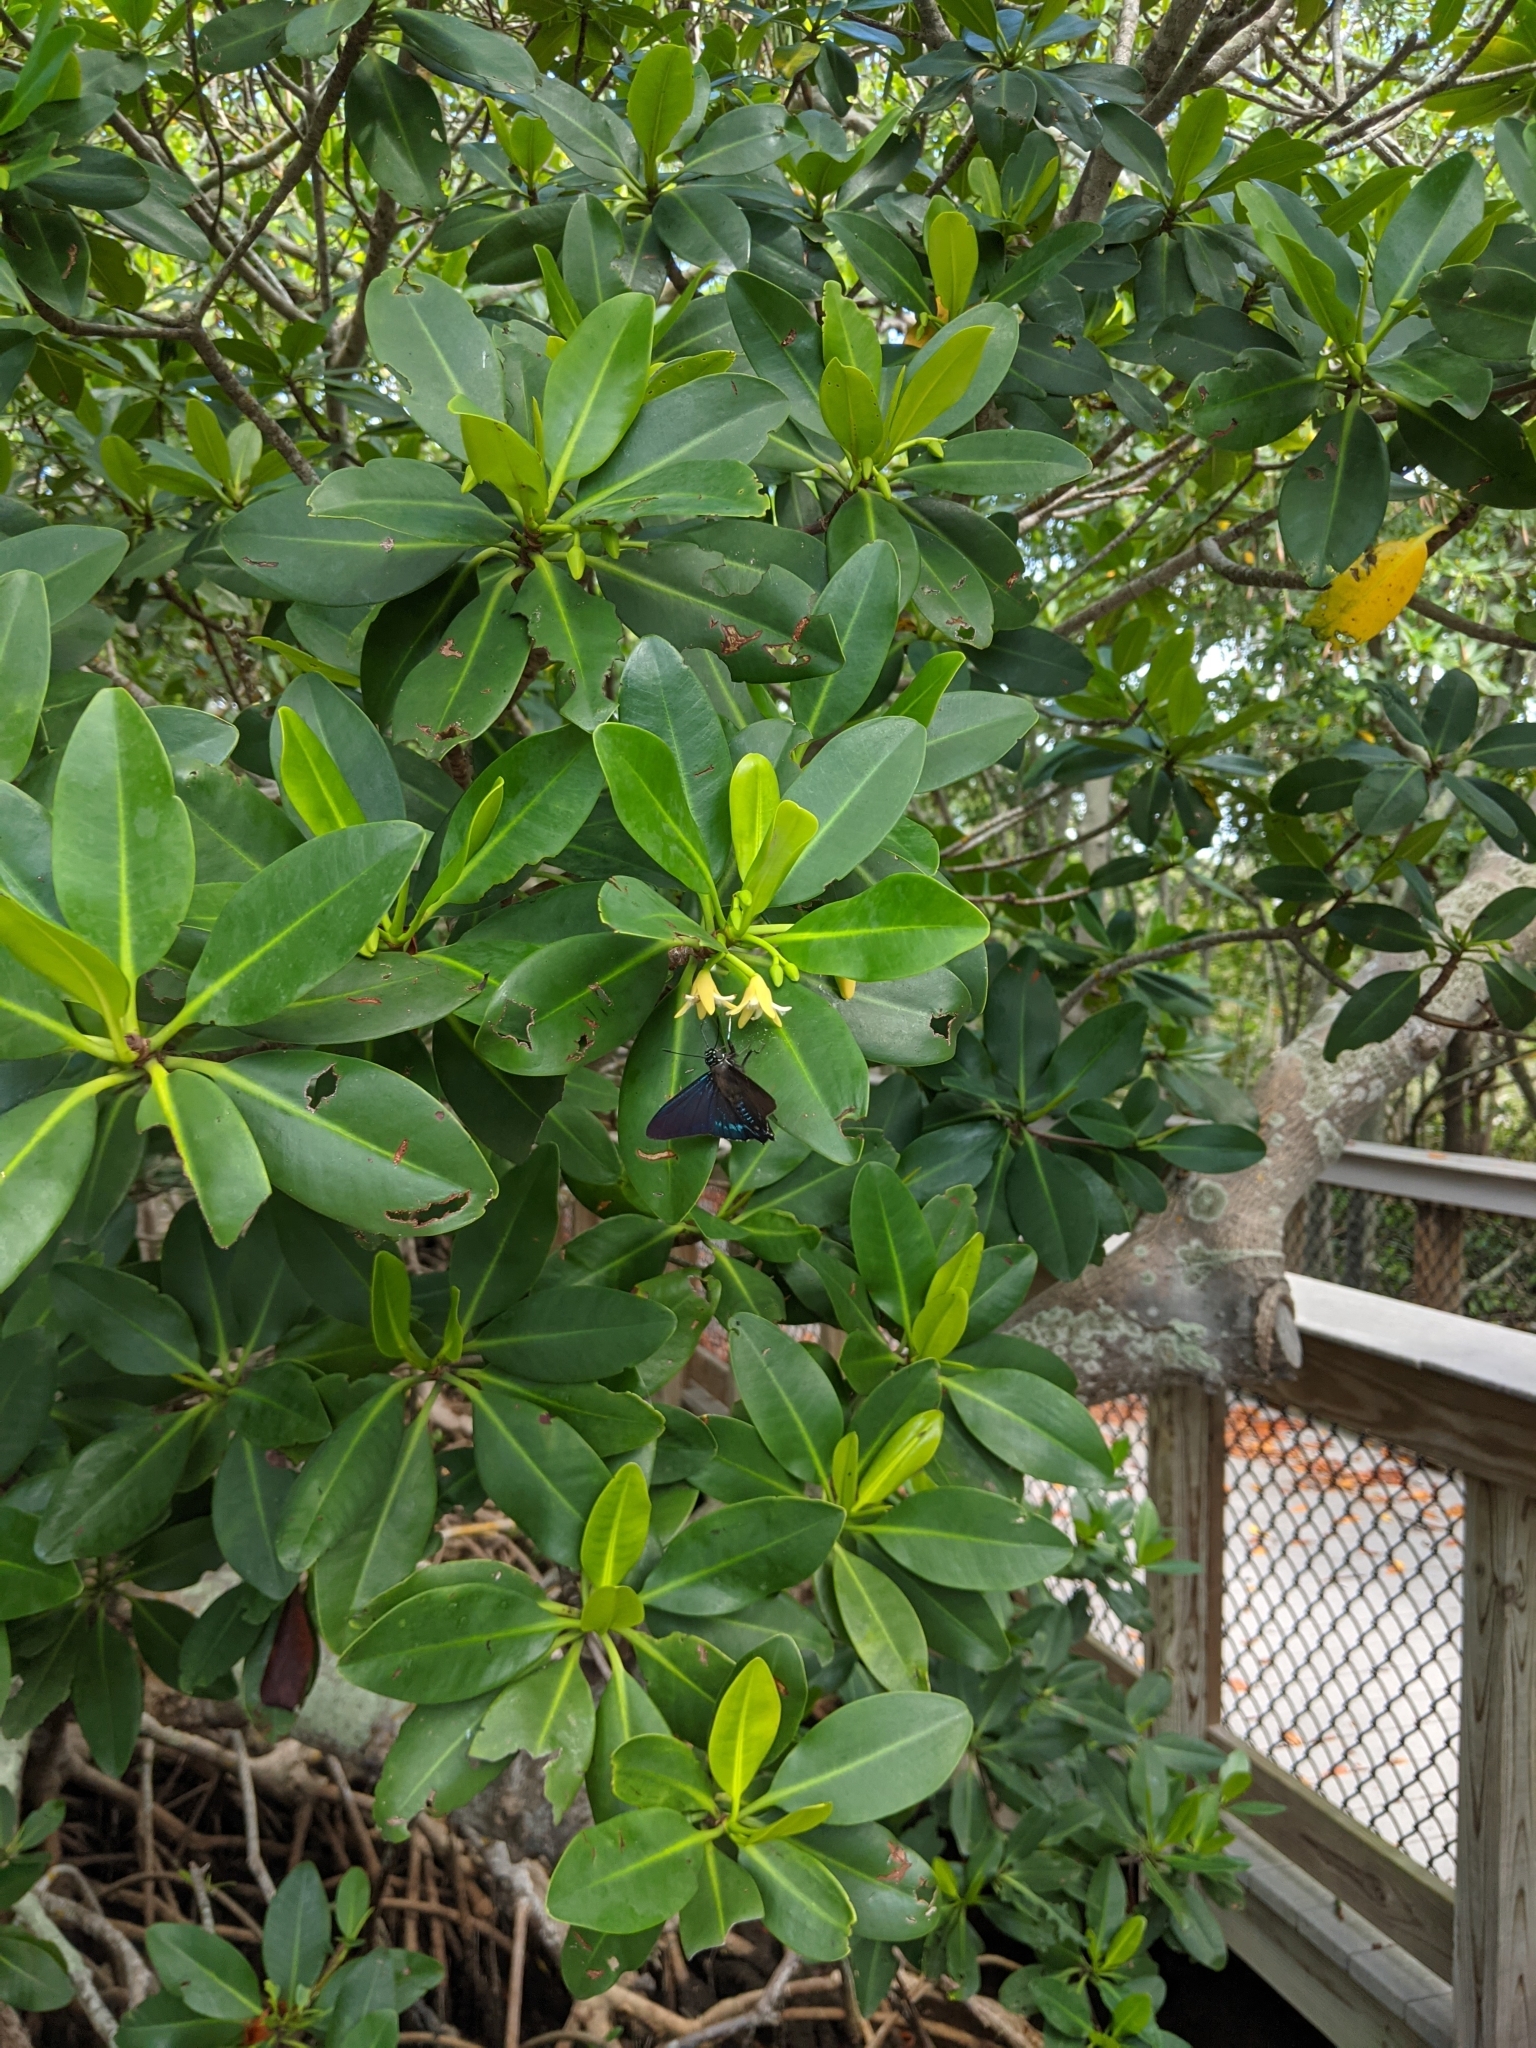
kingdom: Animalia
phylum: Arthropoda
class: Insecta
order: Lepidoptera
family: Hesperiidae
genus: Phocides
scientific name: Phocides pigmalion
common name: Mangrove skipper
